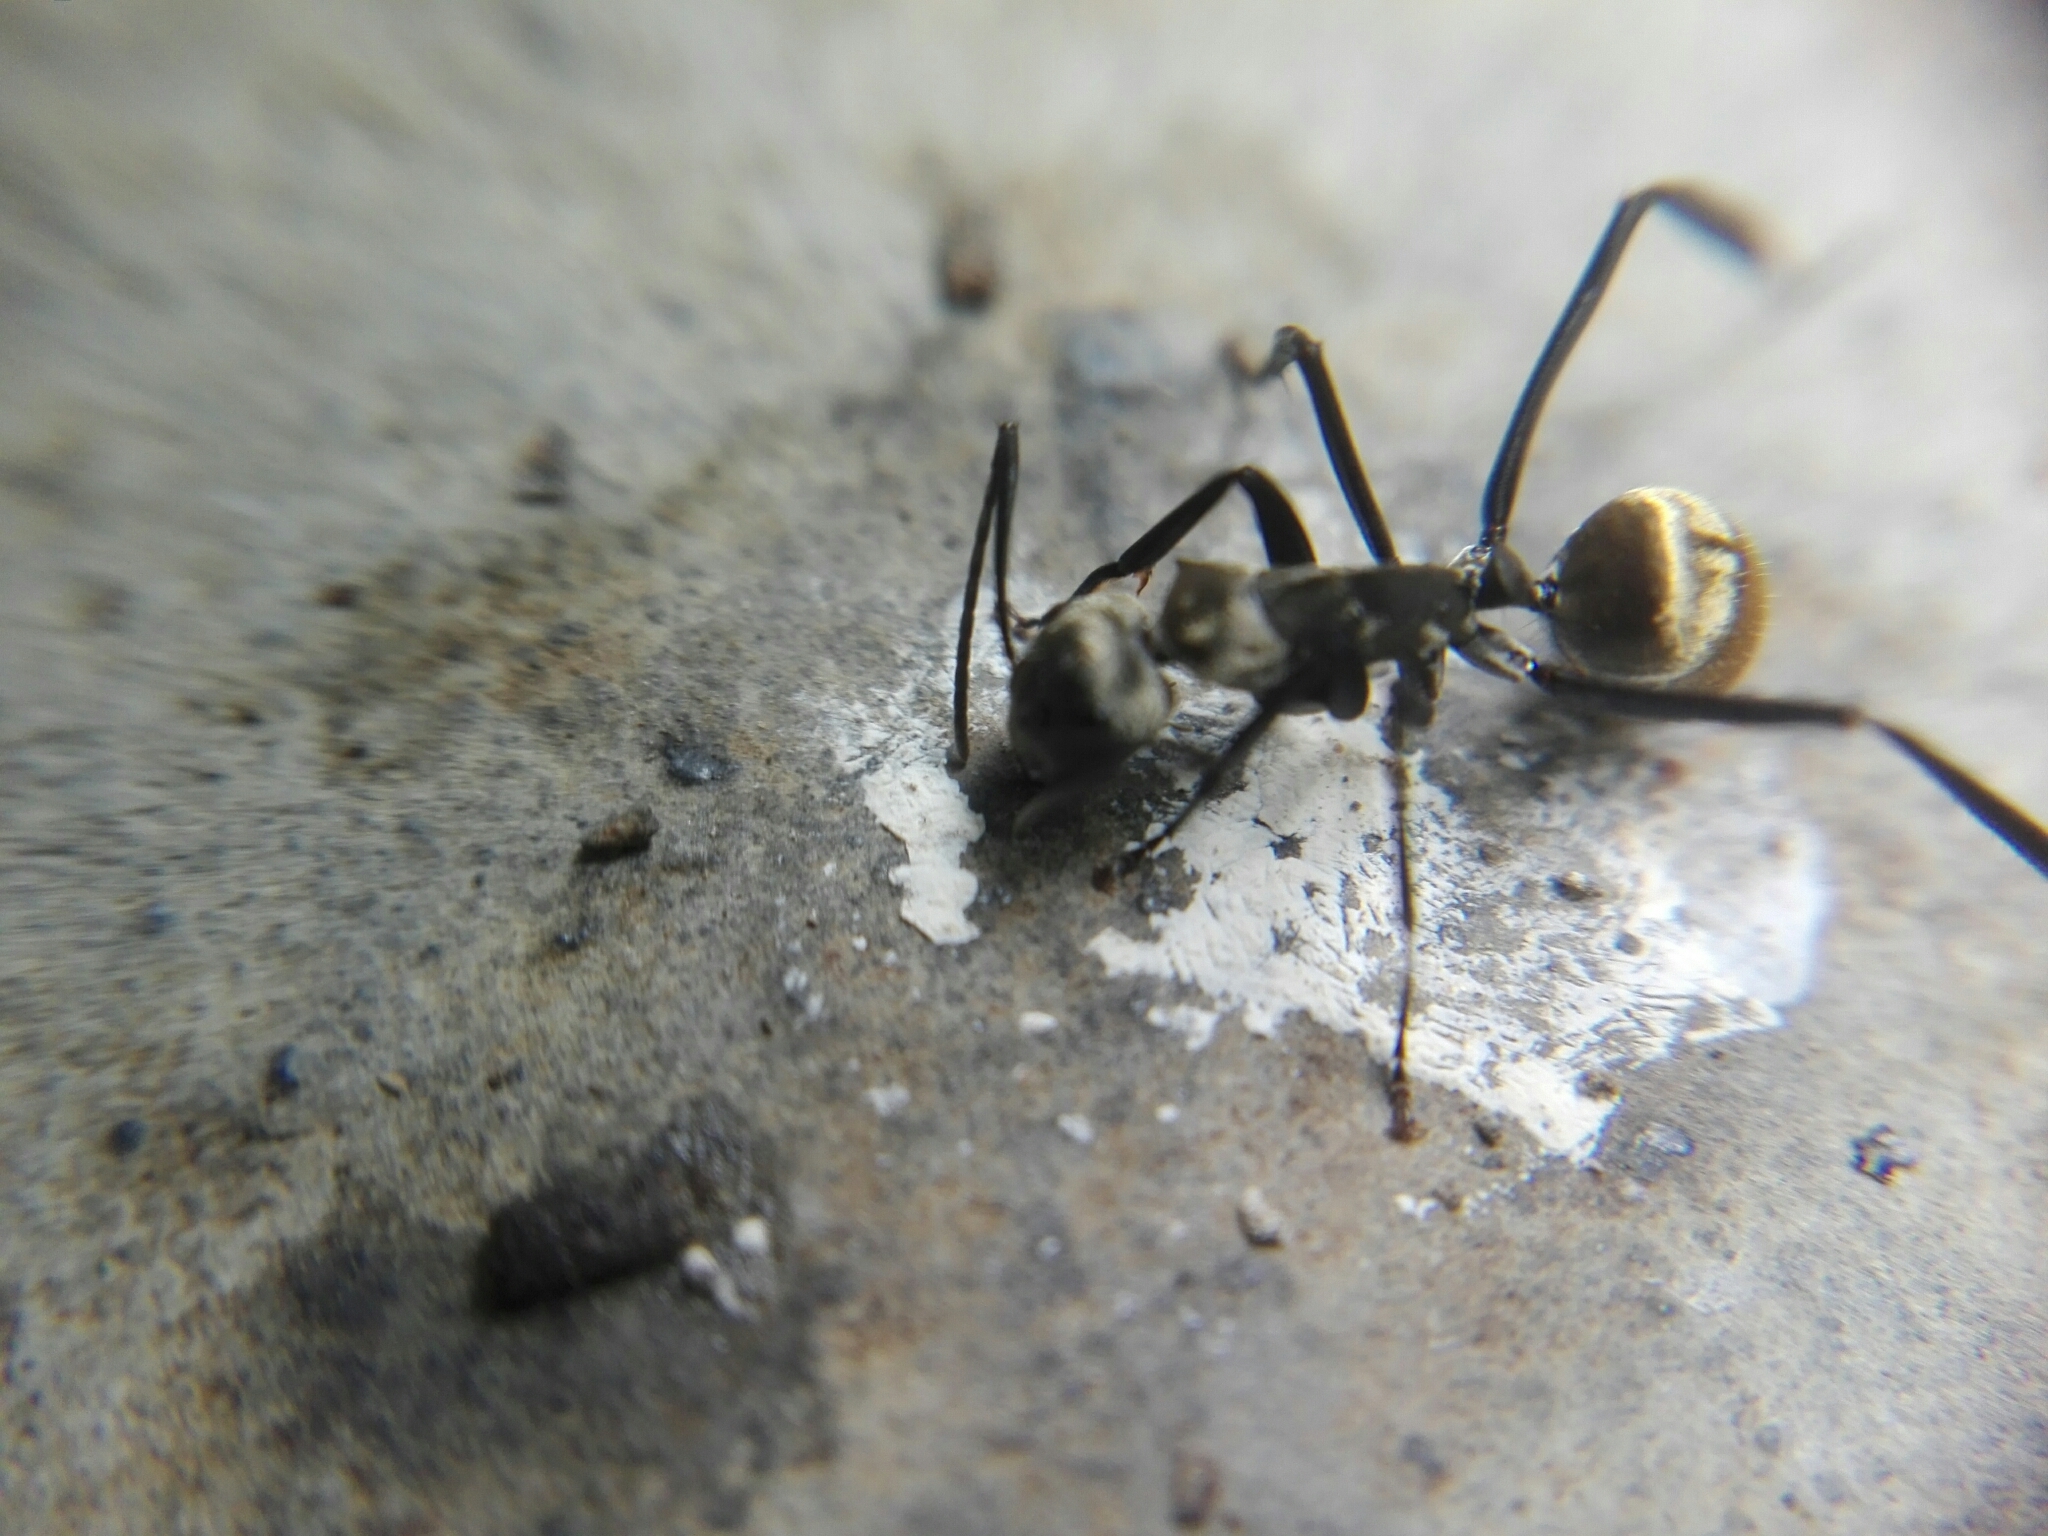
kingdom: Animalia
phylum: Arthropoda
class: Insecta
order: Hymenoptera
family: Formicidae
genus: Camponotus
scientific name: Camponotus sericeiventris
